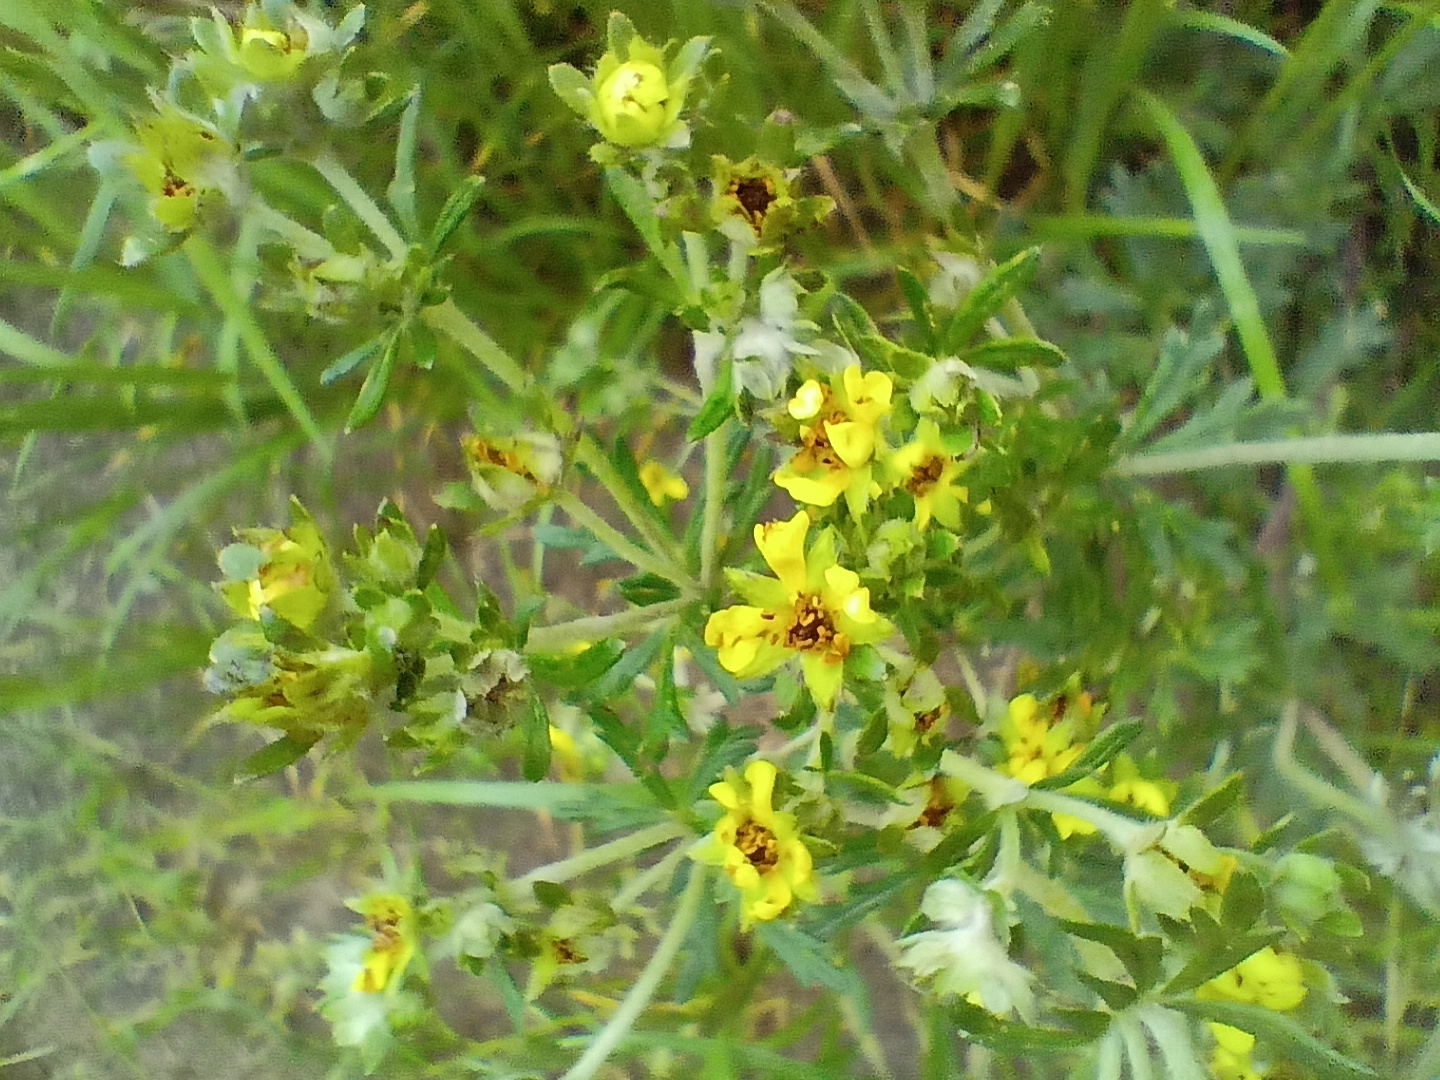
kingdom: Plantae
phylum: Tracheophyta
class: Magnoliopsida
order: Rosales
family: Rosaceae
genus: Potentilla
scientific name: Potentilla argentea
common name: Hoary cinquefoil
